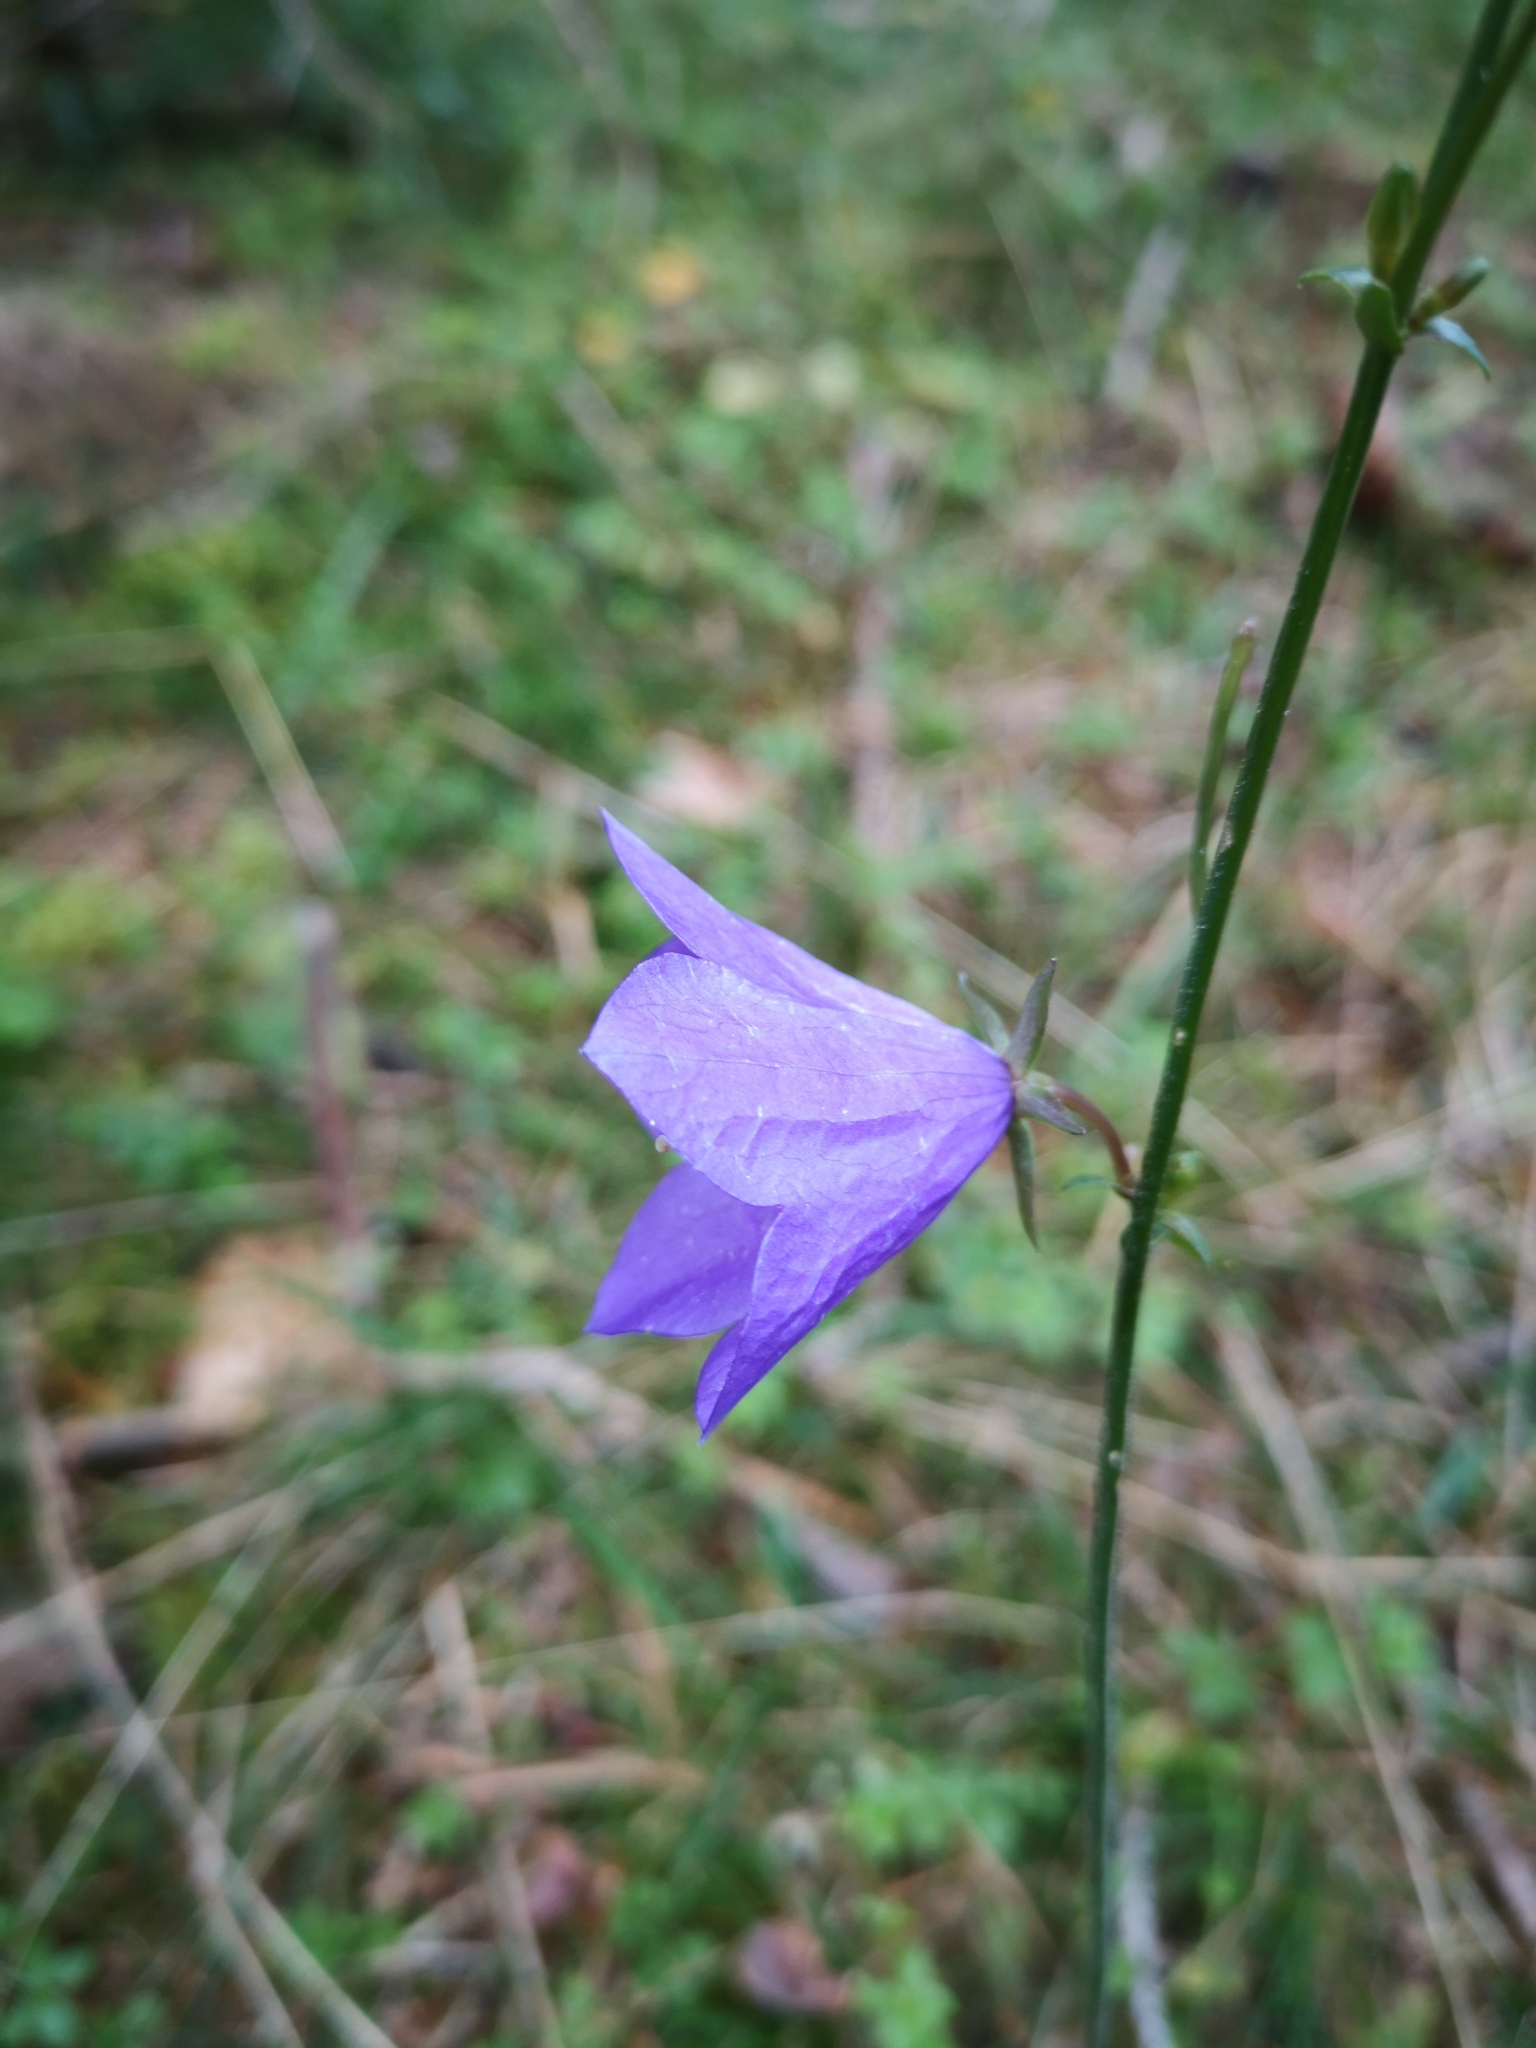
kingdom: Plantae
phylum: Tracheophyta
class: Magnoliopsida
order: Asterales
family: Campanulaceae
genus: Campanula
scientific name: Campanula persicifolia
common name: Peach-leaved bellflower
